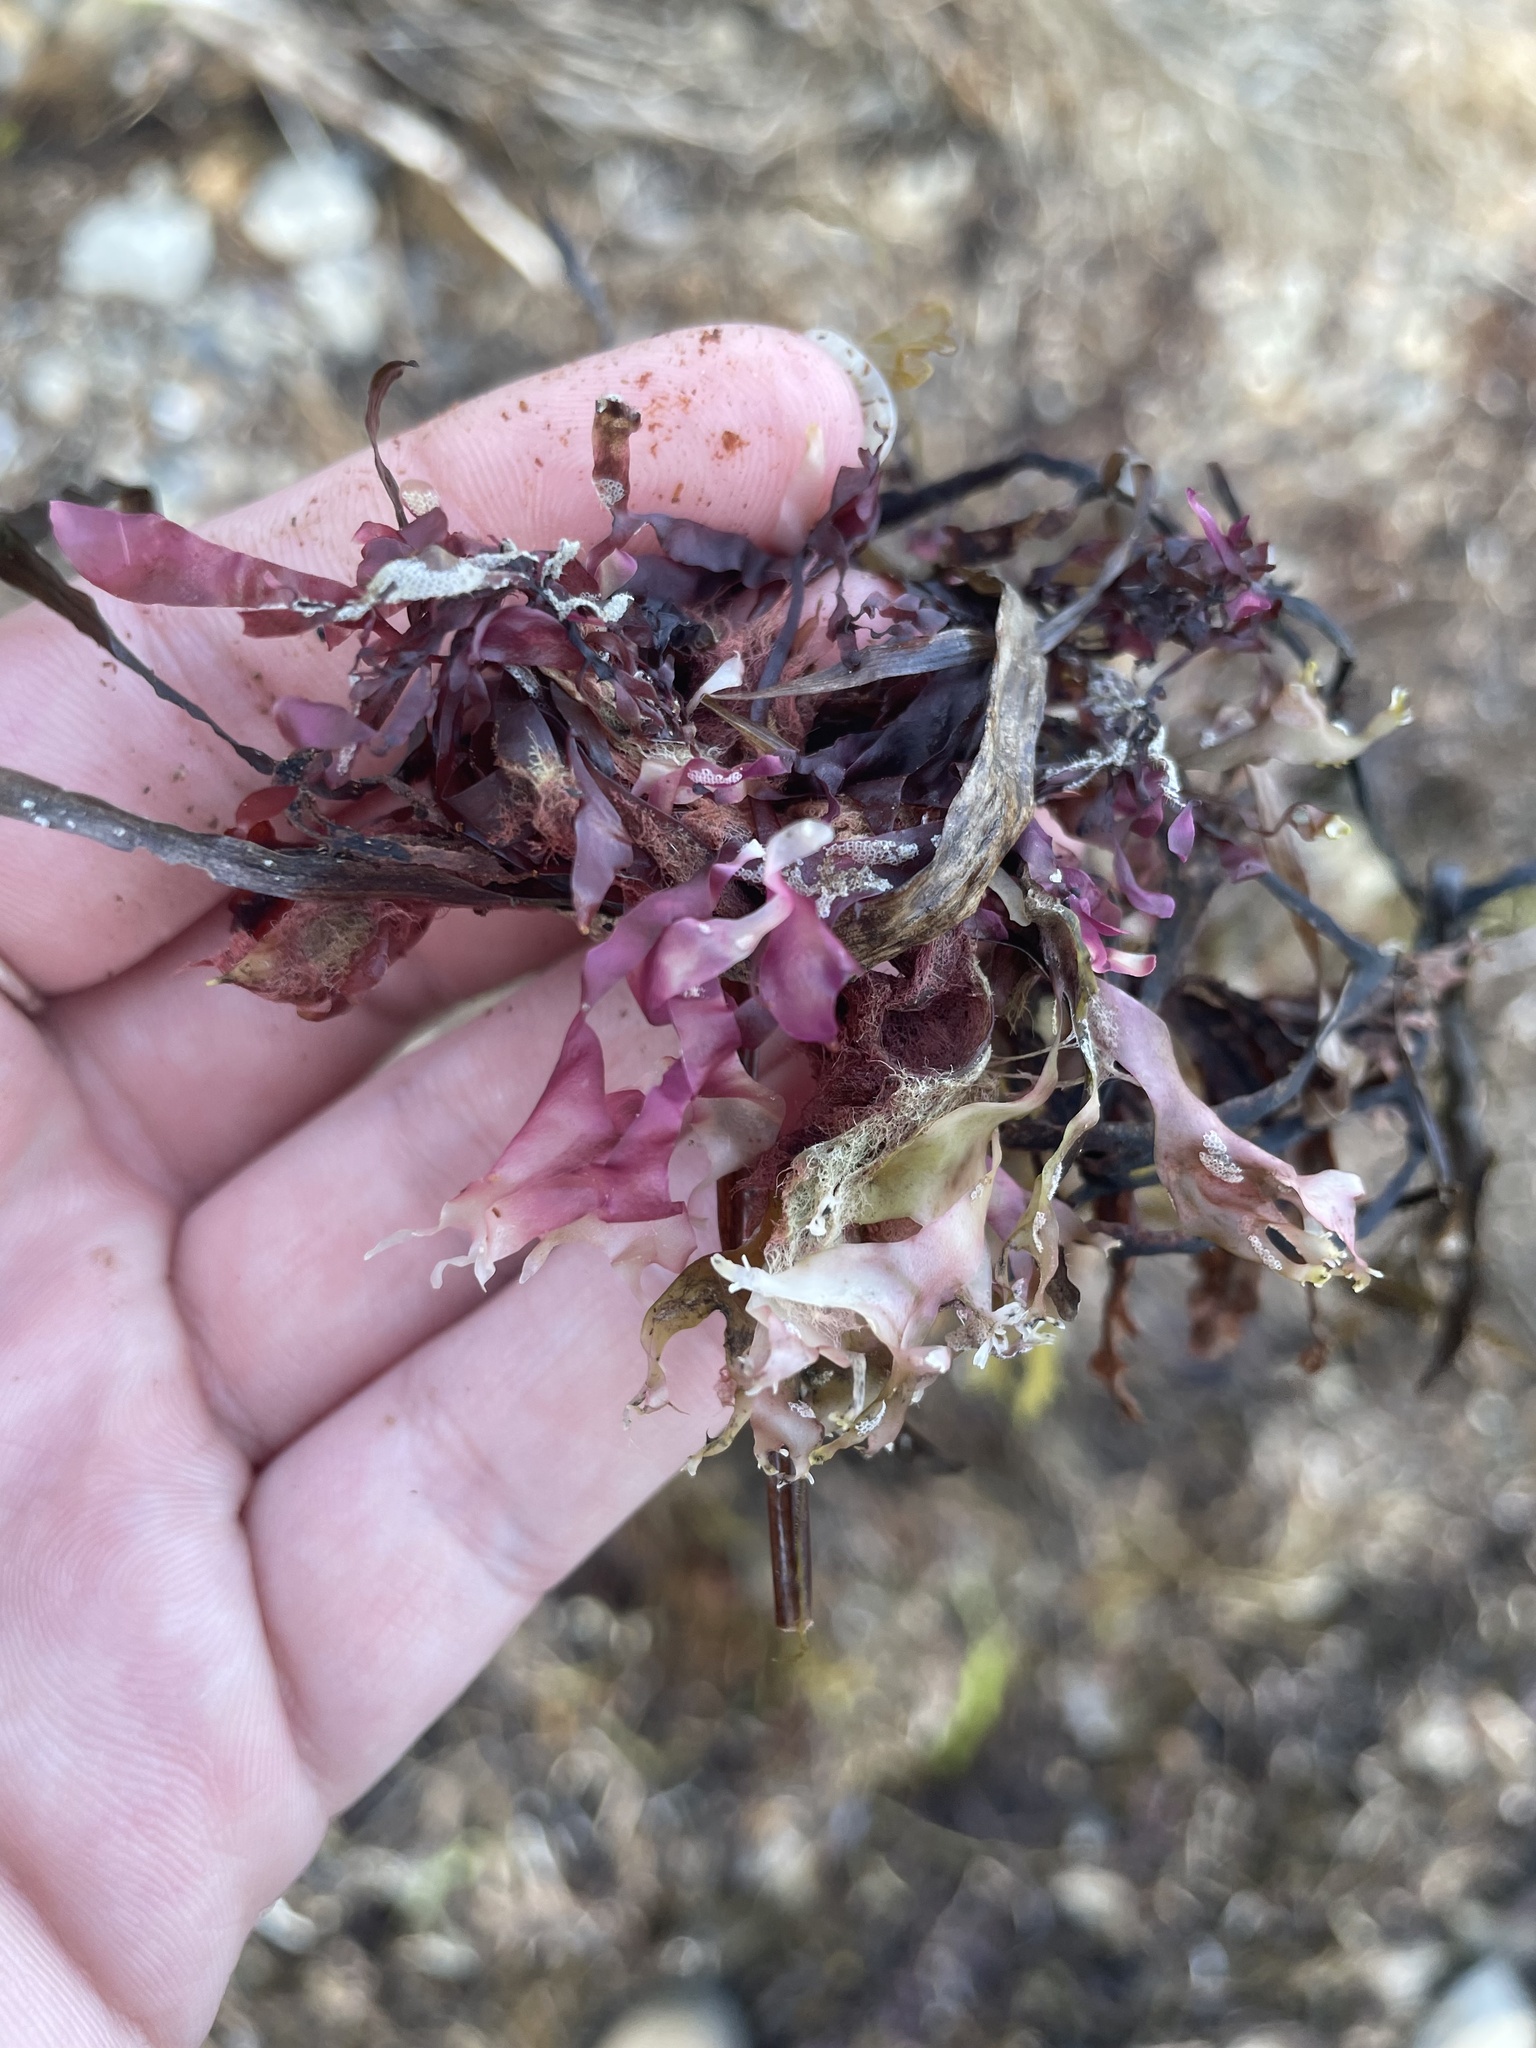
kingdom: Plantae
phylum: Rhodophyta
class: Florideophyceae
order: Gigartinales
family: Gigartinaceae
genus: Chondrus
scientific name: Chondrus crispus
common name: Carrageen
